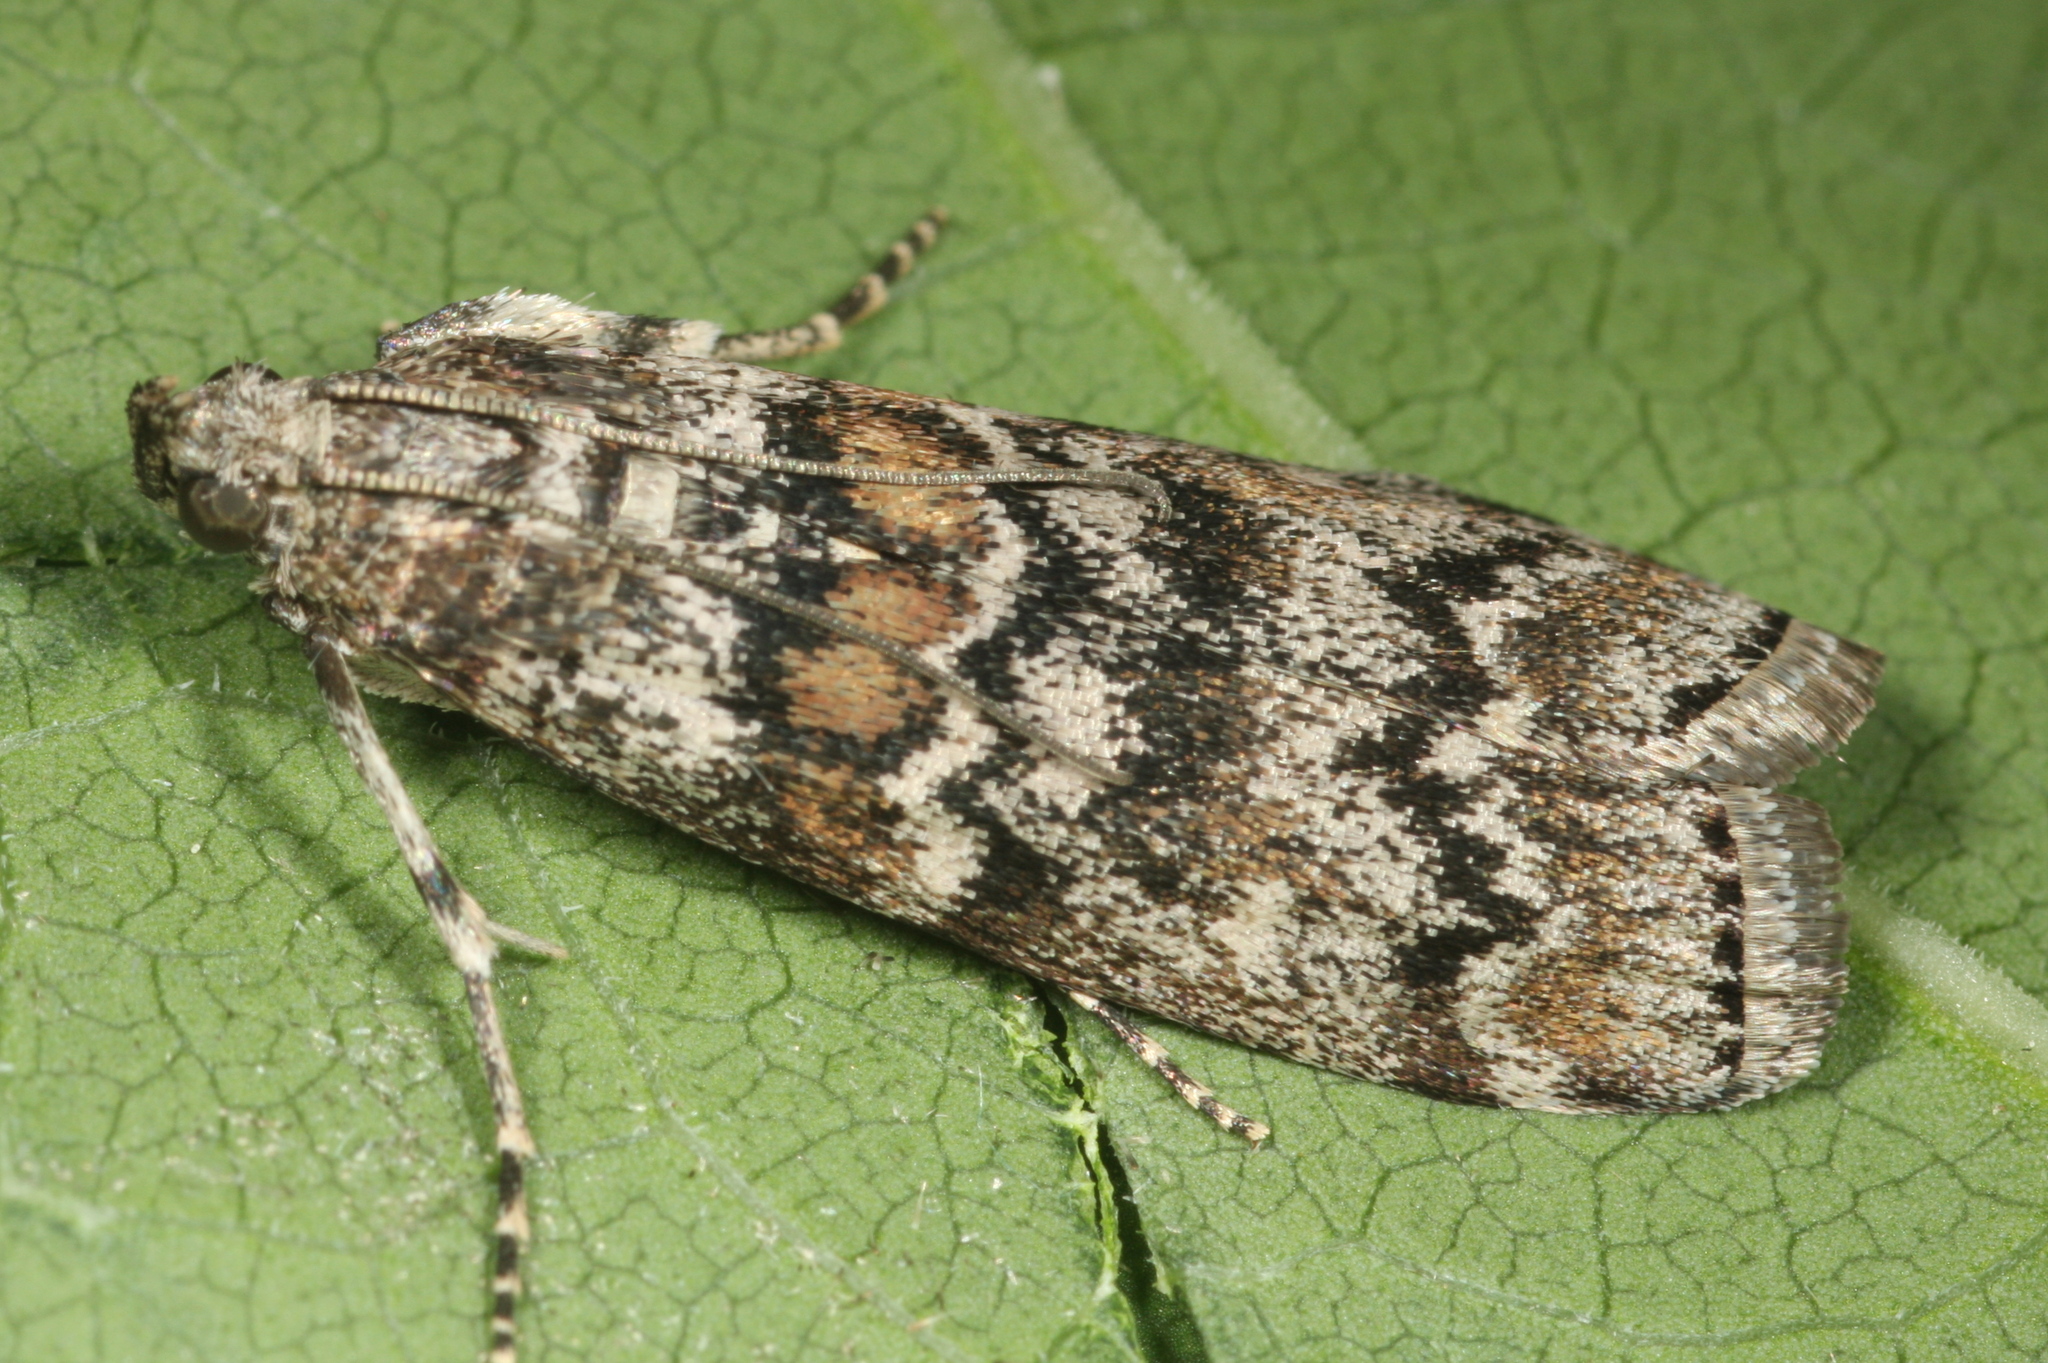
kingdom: Animalia
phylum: Arthropoda
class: Insecta
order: Lepidoptera
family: Pyralidae
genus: Dioryctria
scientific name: Dioryctria abietella
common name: Dark pine knot-horn
